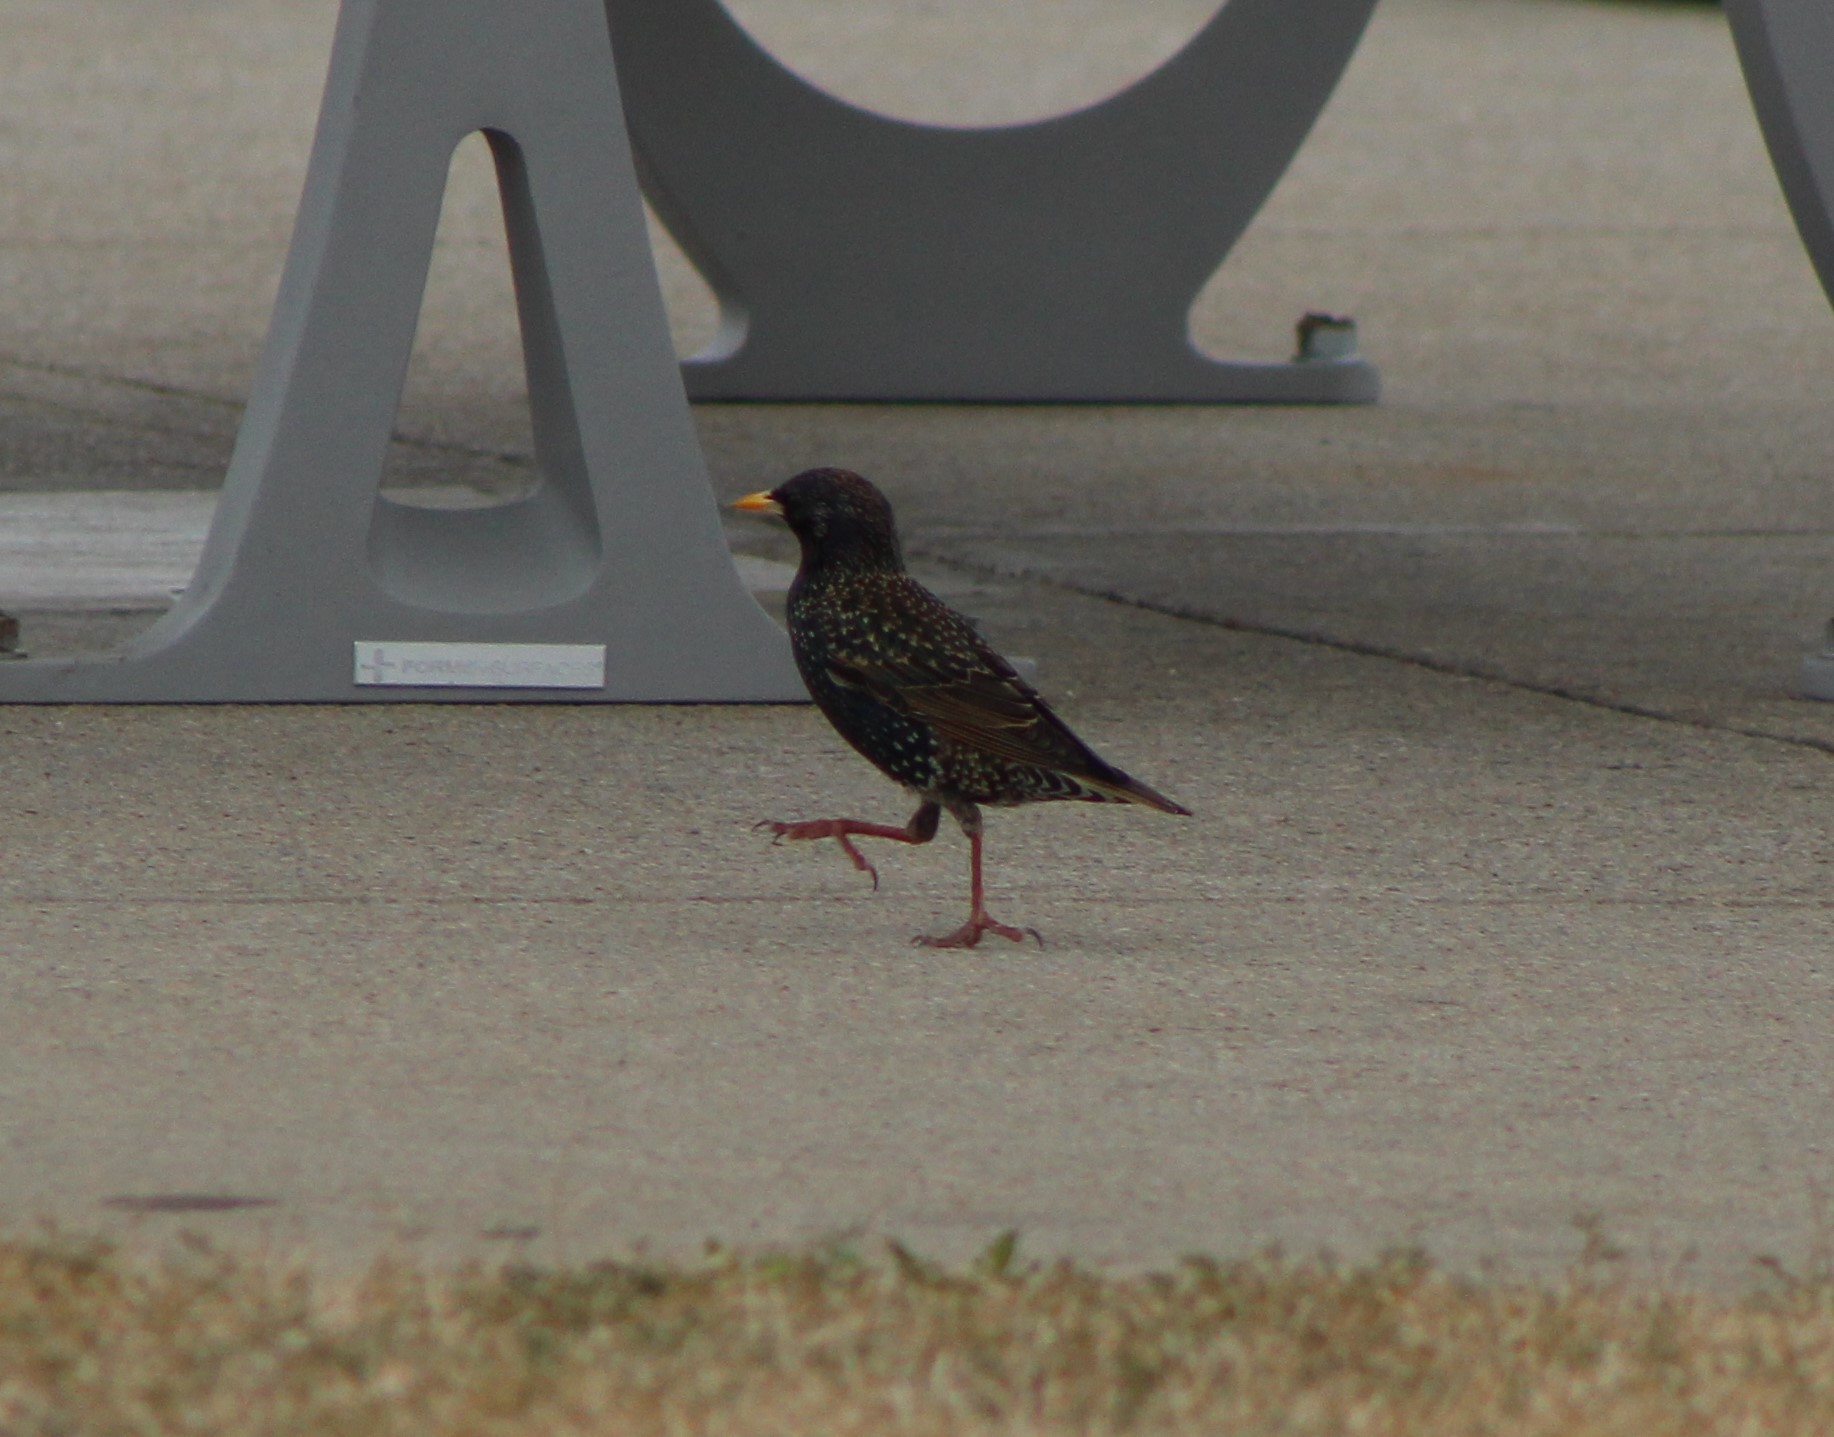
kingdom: Animalia
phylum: Chordata
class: Aves
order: Passeriformes
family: Sturnidae
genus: Sturnus
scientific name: Sturnus vulgaris
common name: Common starling
